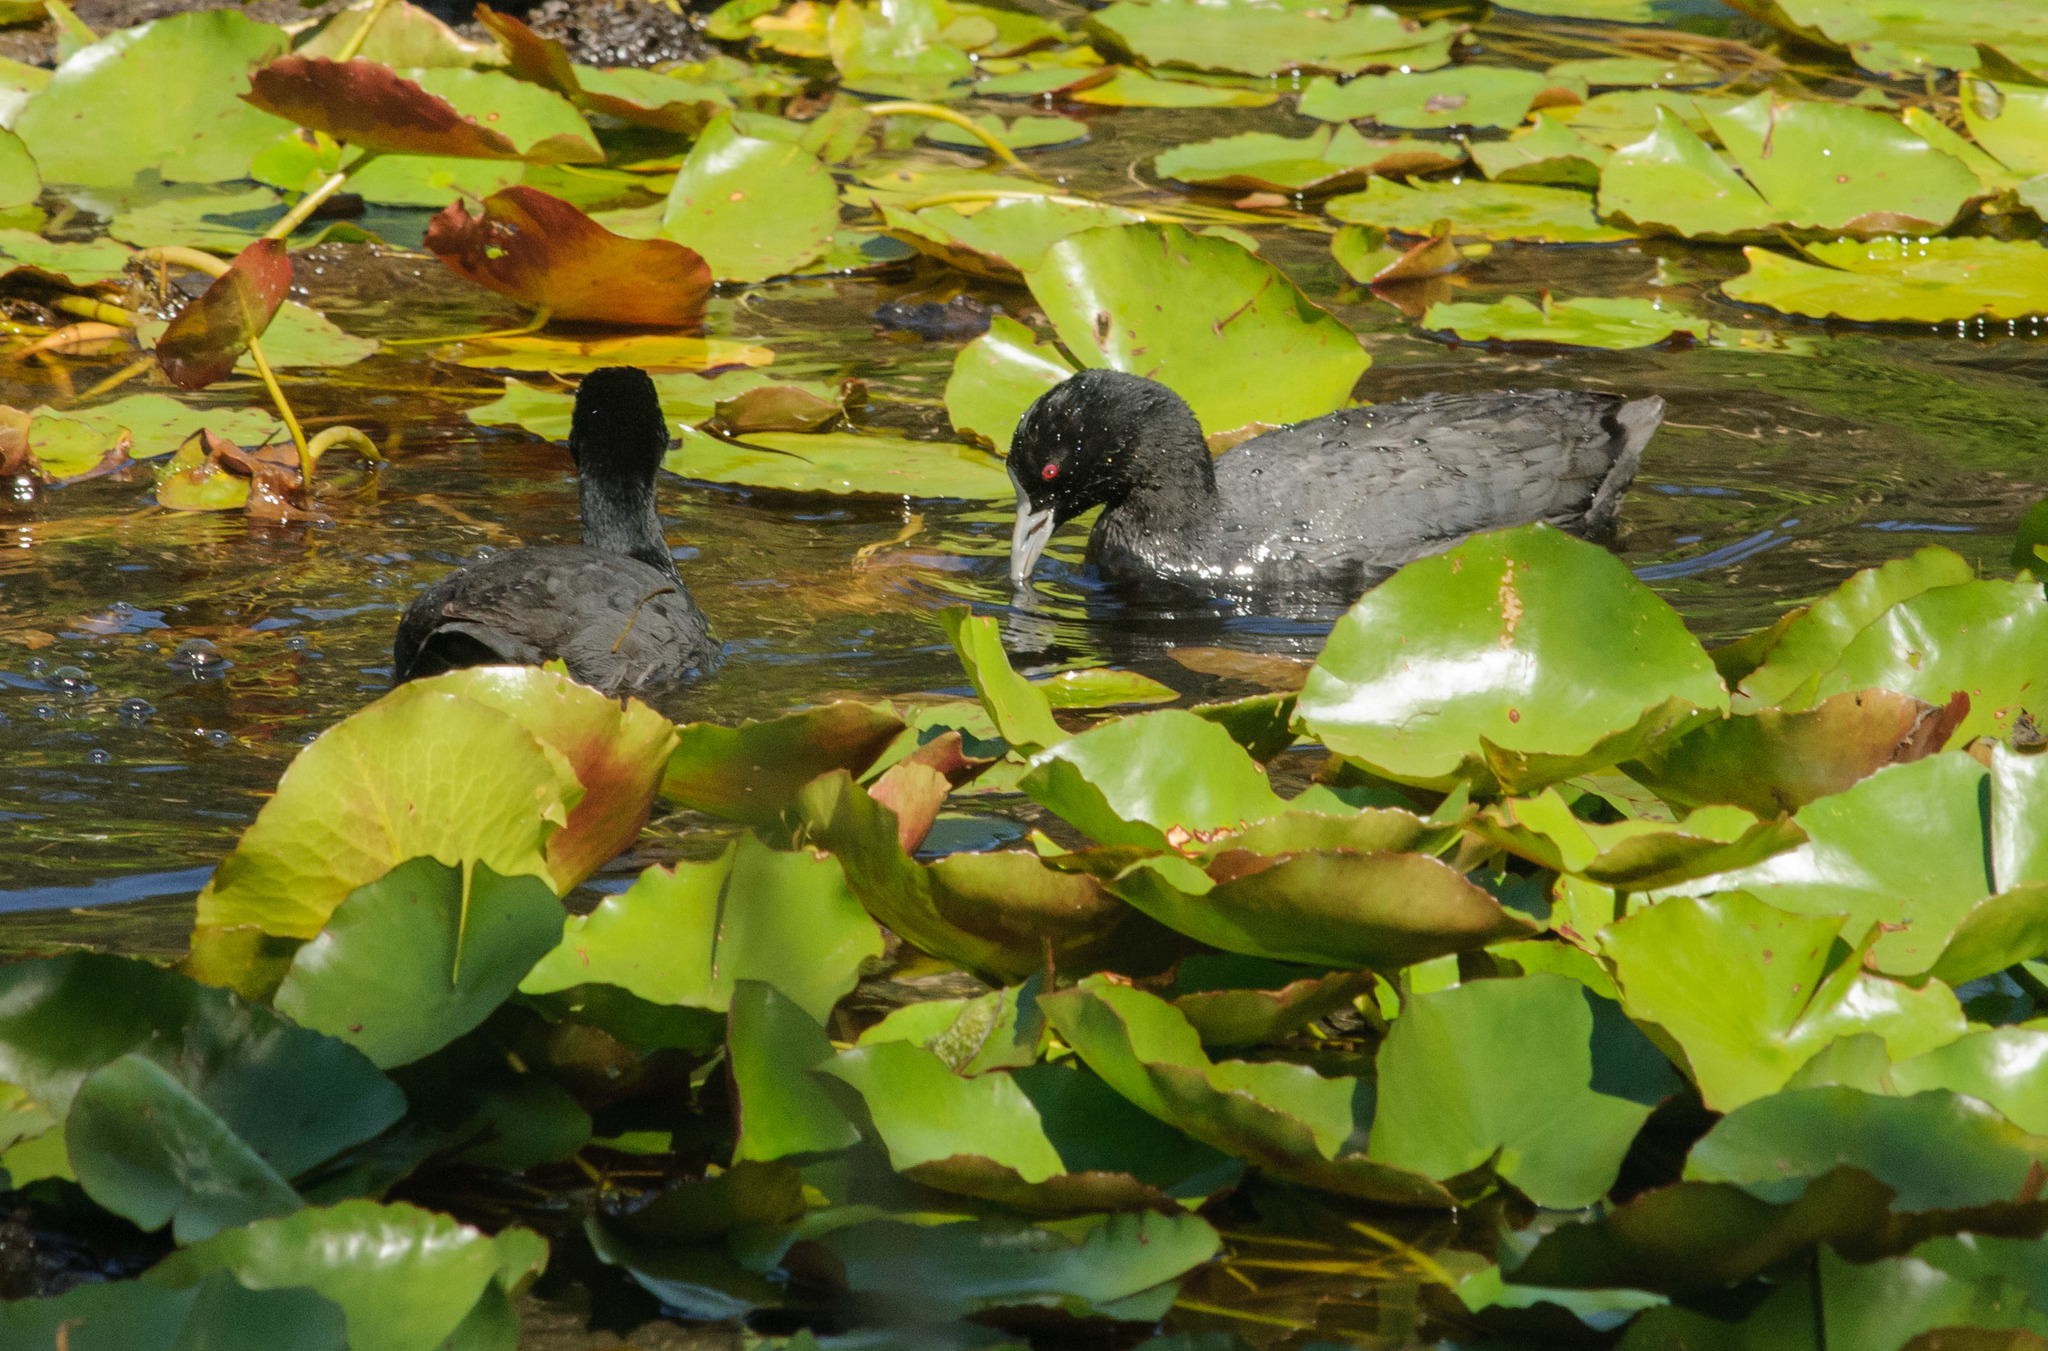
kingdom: Animalia
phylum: Chordata
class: Aves
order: Gruiformes
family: Rallidae
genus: Fulica
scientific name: Fulica atra
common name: Eurasian coot
